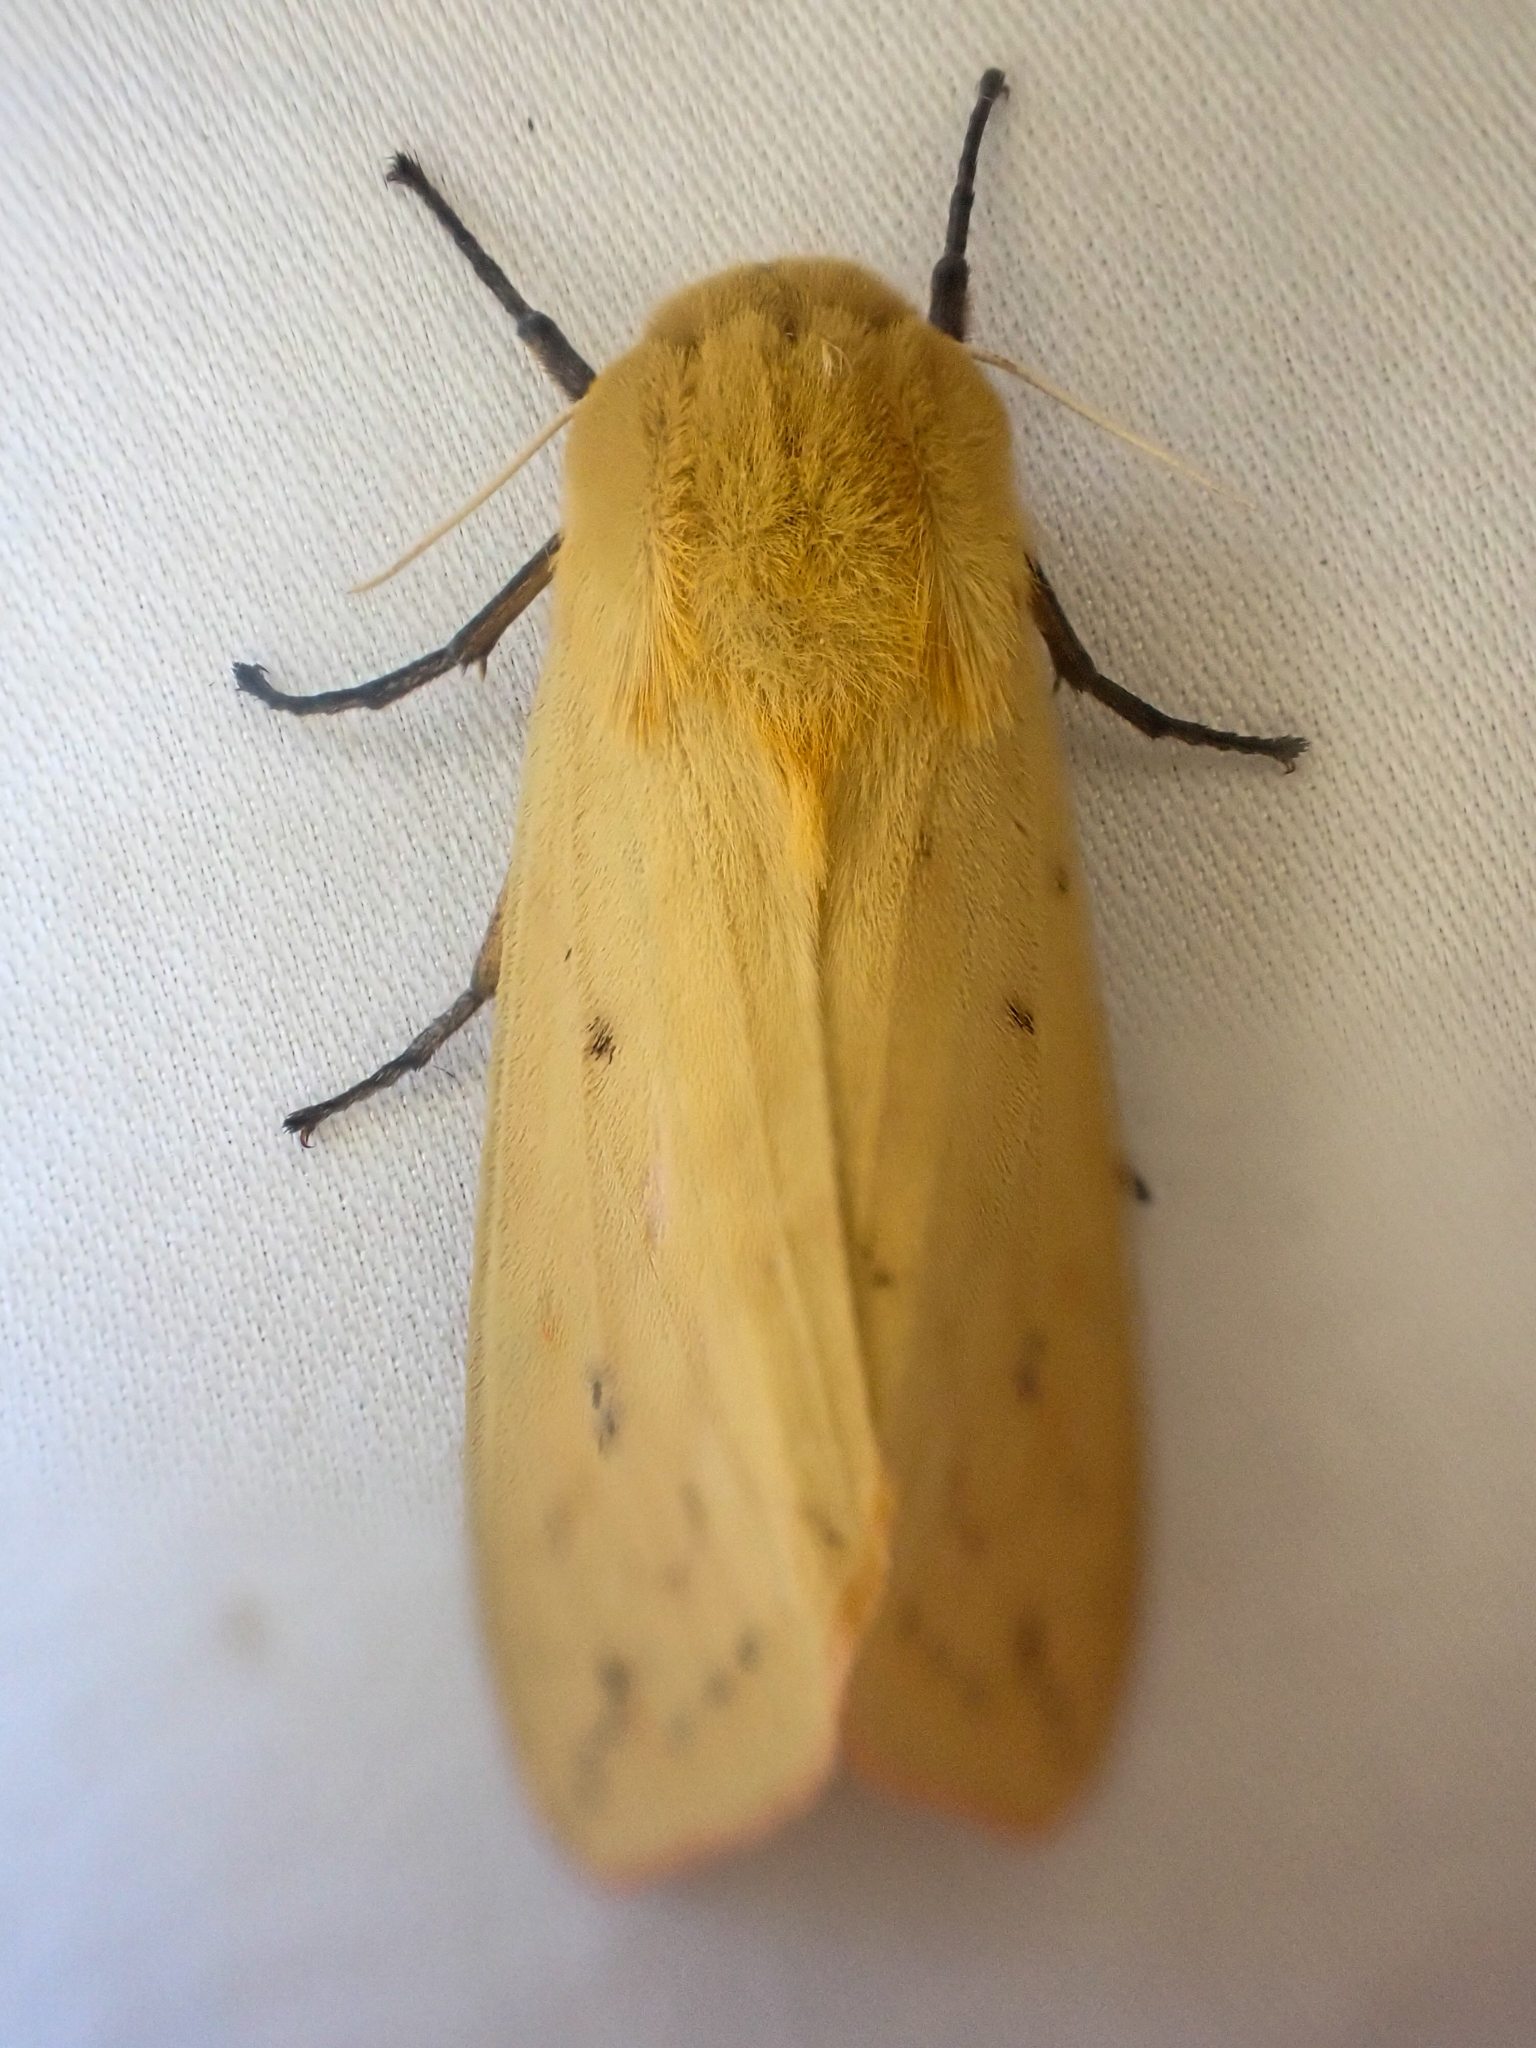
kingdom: Animalia
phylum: Arthropoda
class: Insecta
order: Lepidoptera
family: Erebidae
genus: Pyrrharctia
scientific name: Pyrrharctia isabella
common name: Isabella tiger moth
